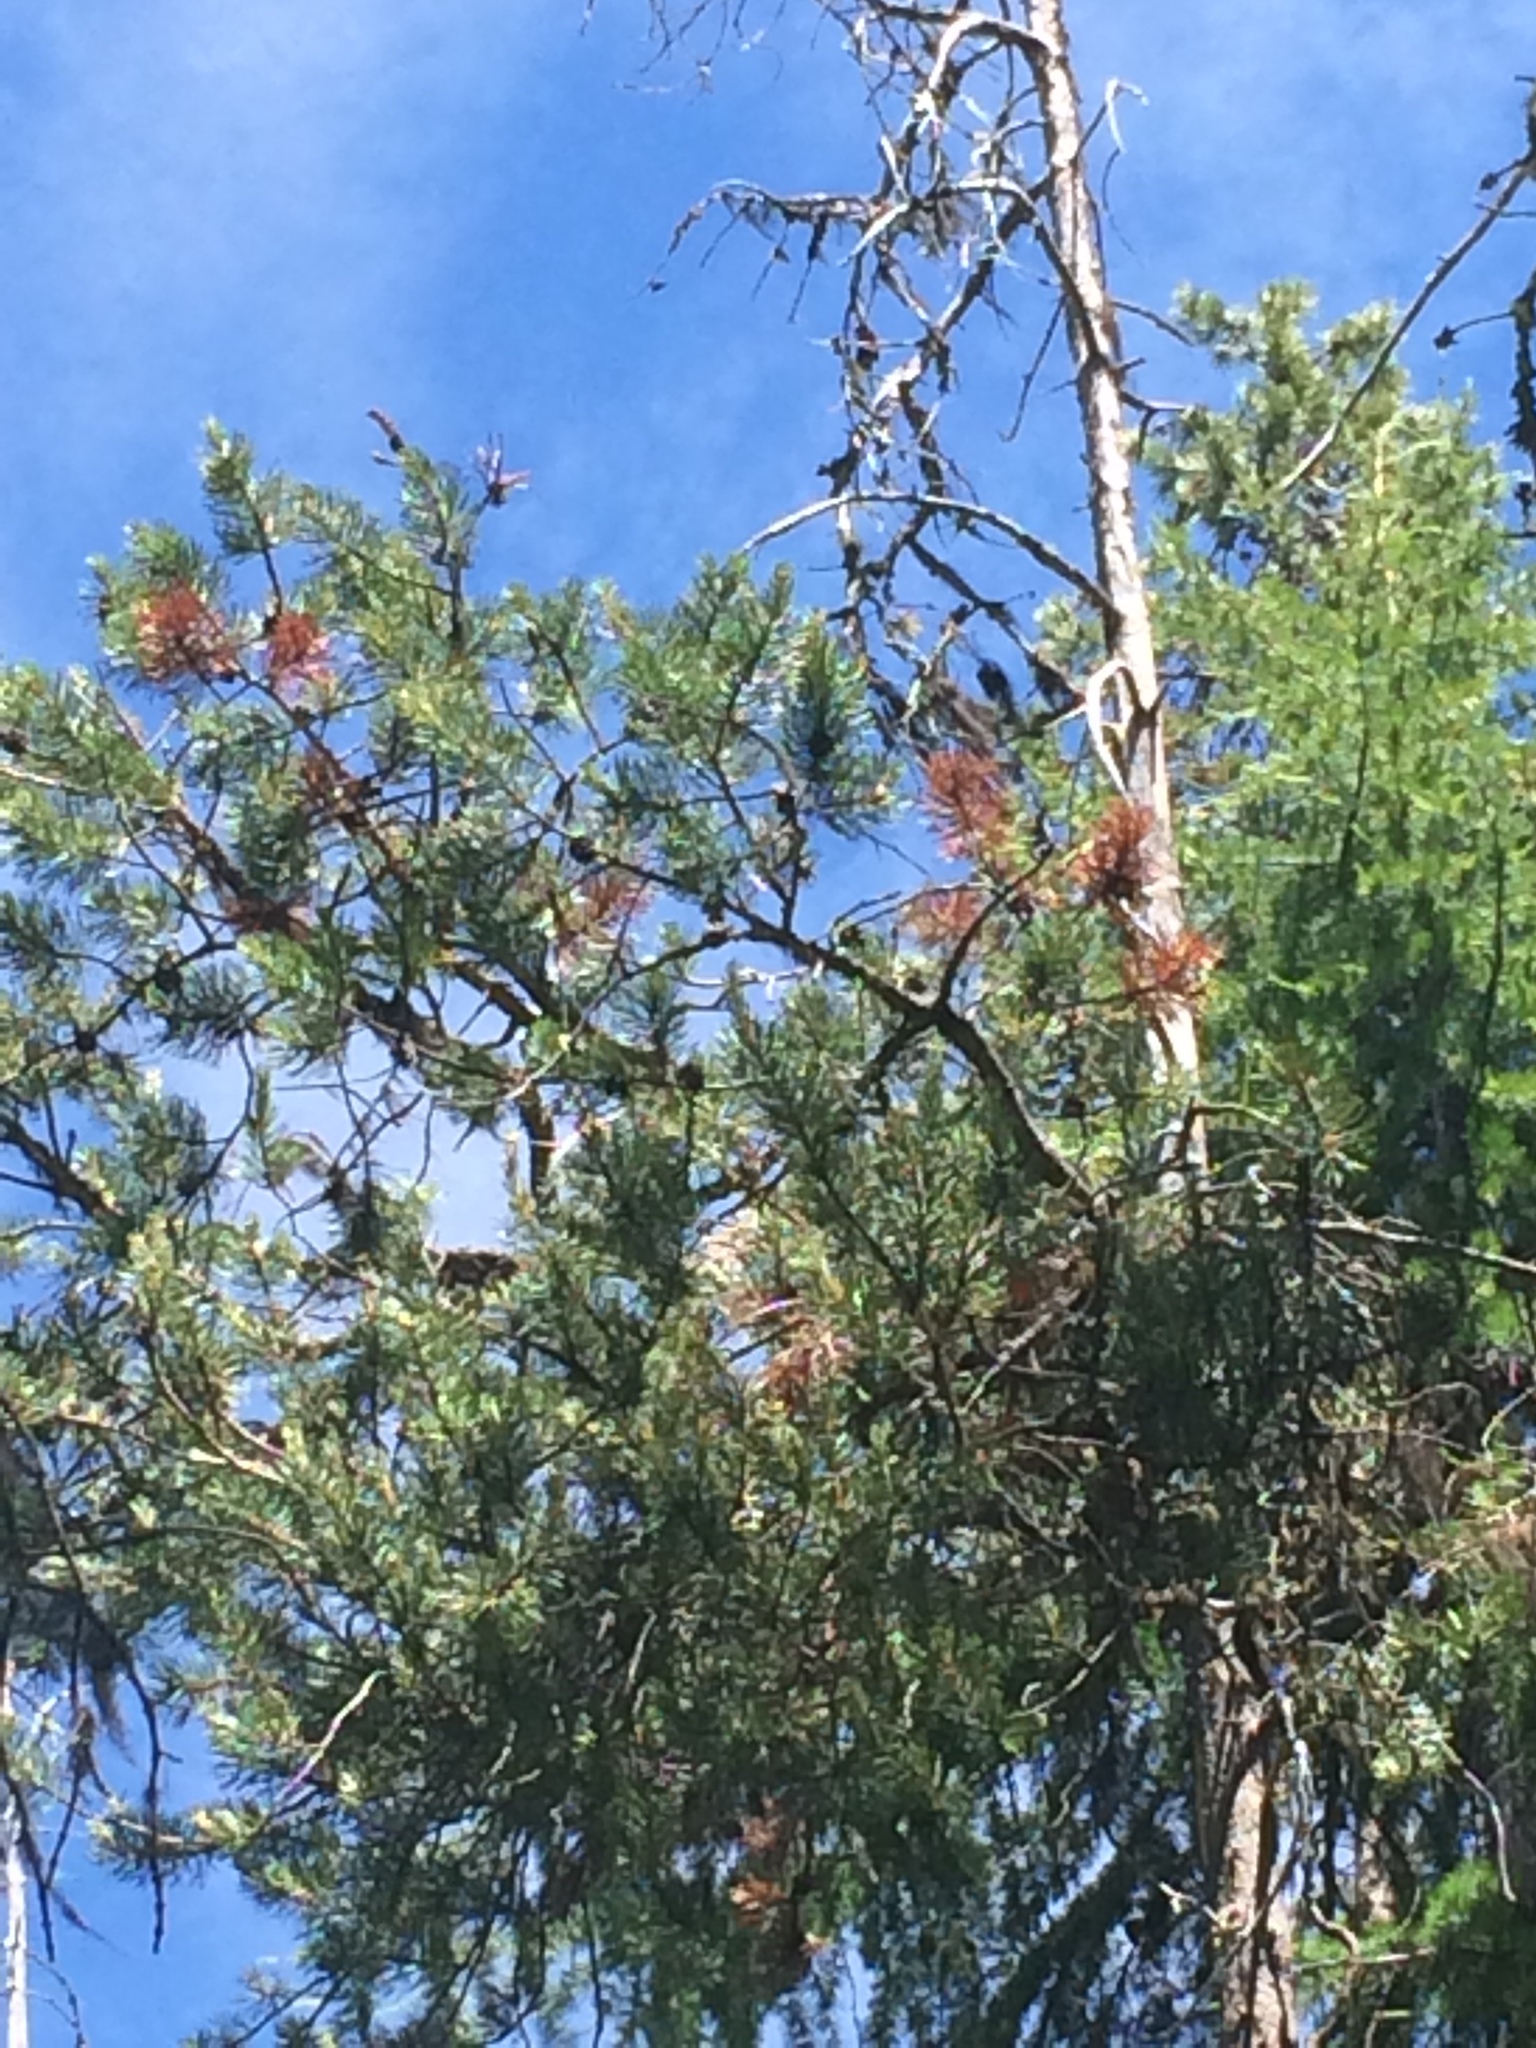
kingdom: Plantae
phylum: Tracheophyta
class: Pinopsida
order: Pinales
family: Pinaceae
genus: Larix
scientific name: Larix occidentalis
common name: Western larch
